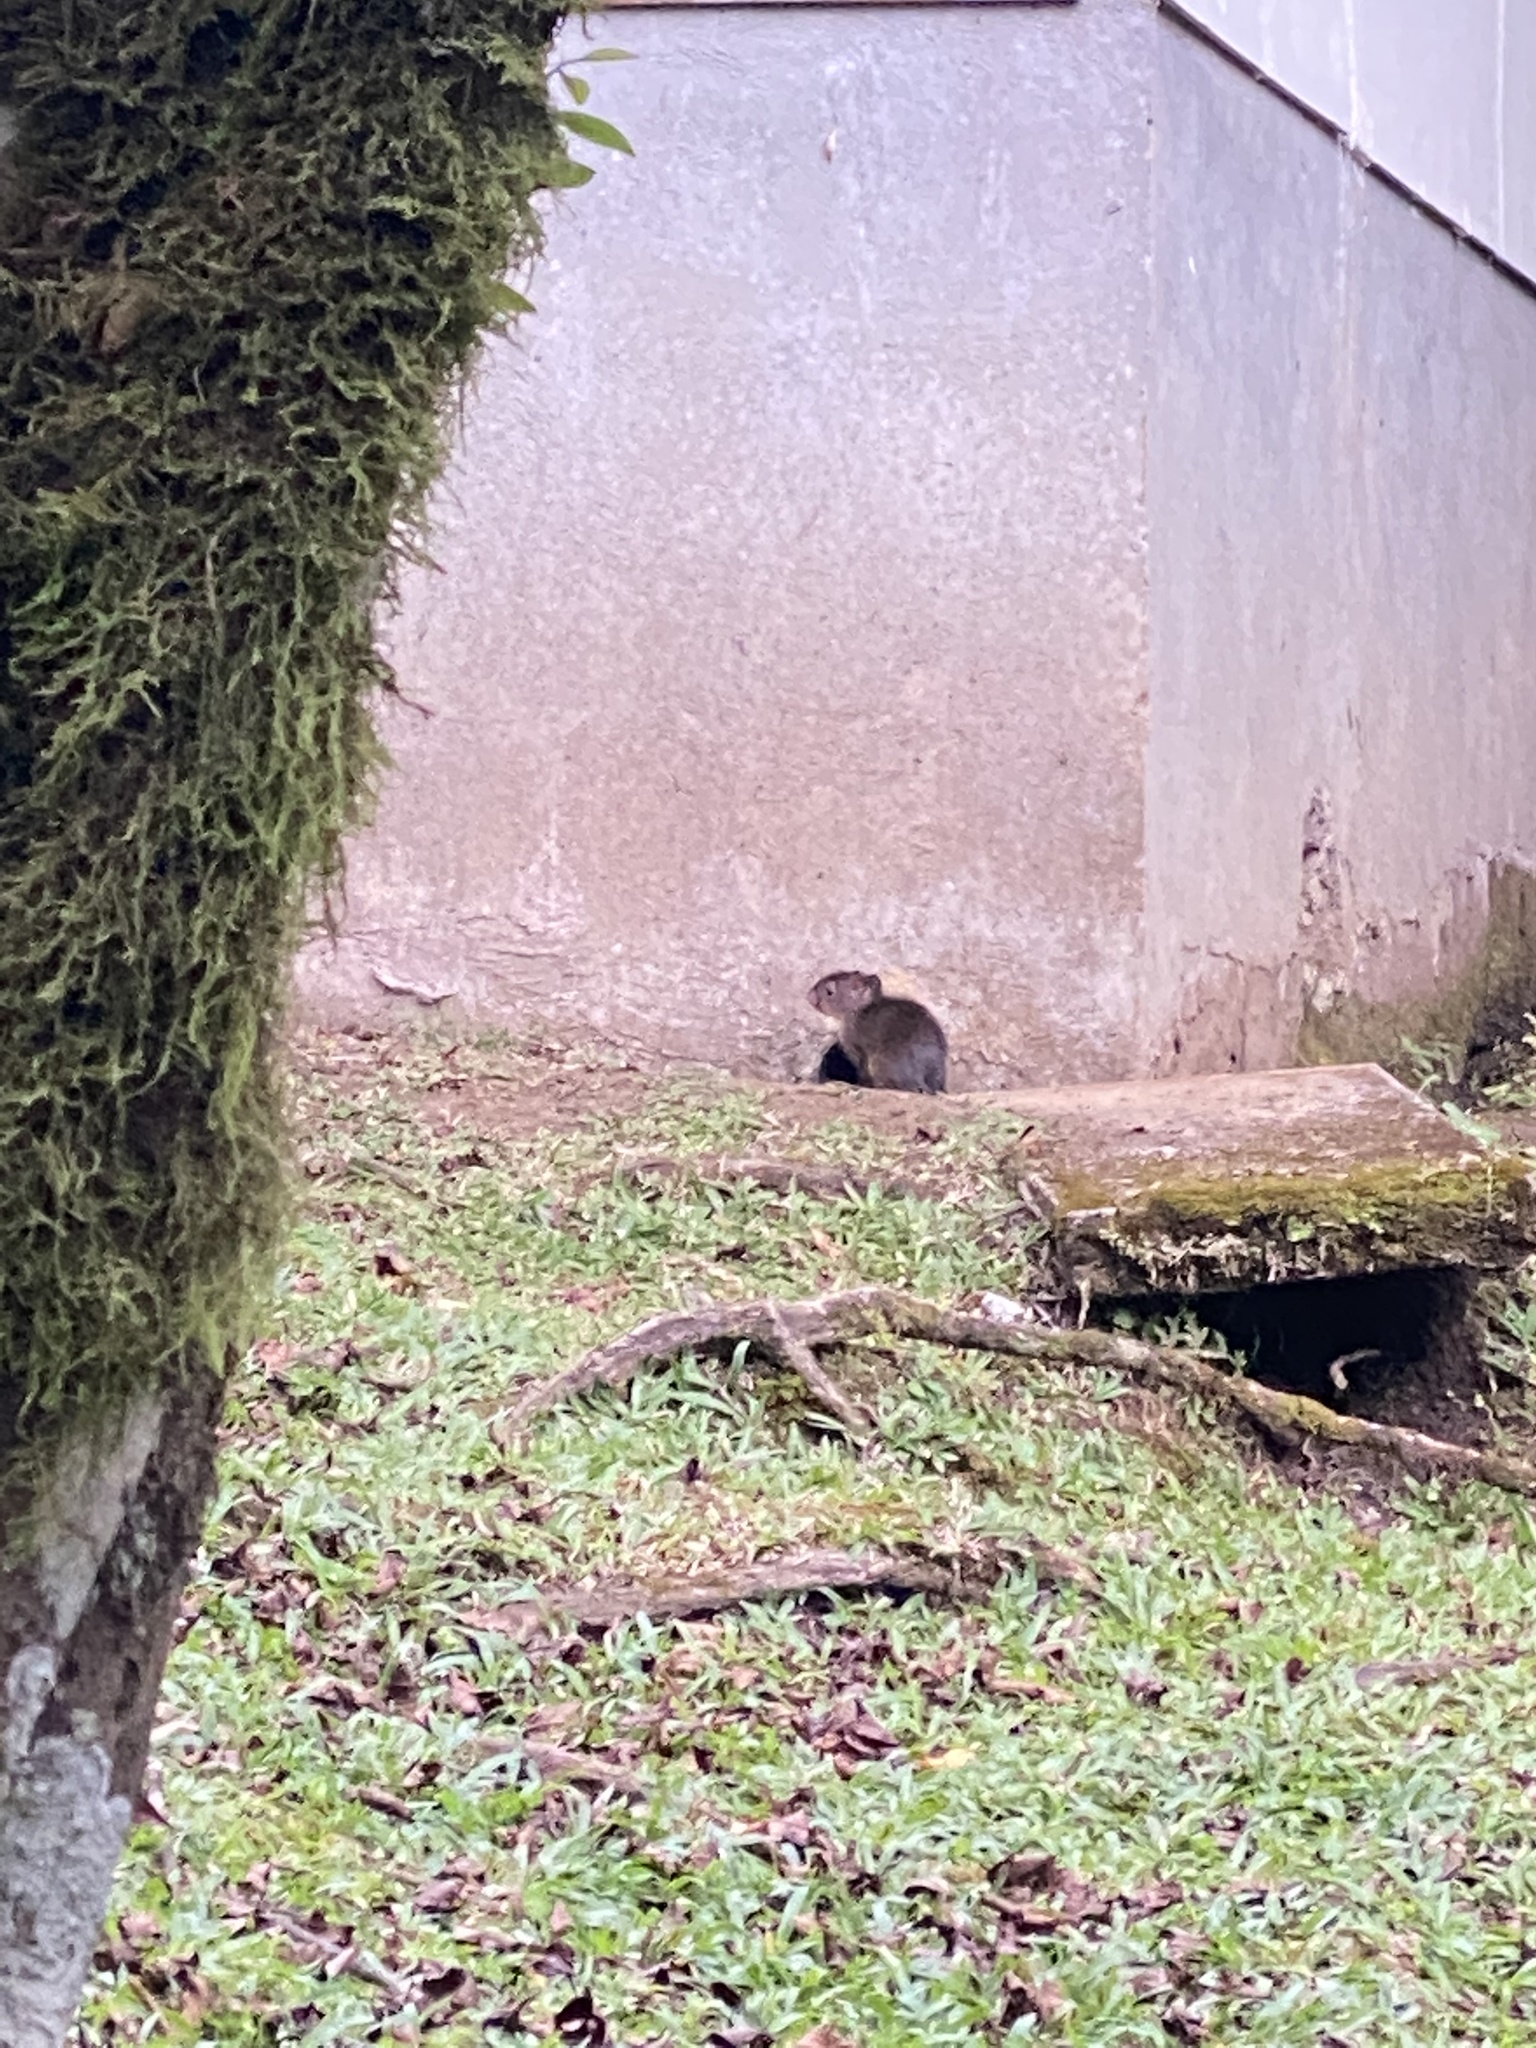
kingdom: Animalia
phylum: Chordata
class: Mammalia
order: Rodentia
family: Dasyproctidae
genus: Dasyprocta
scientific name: Dasyprocta punctata
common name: Central american agouti
